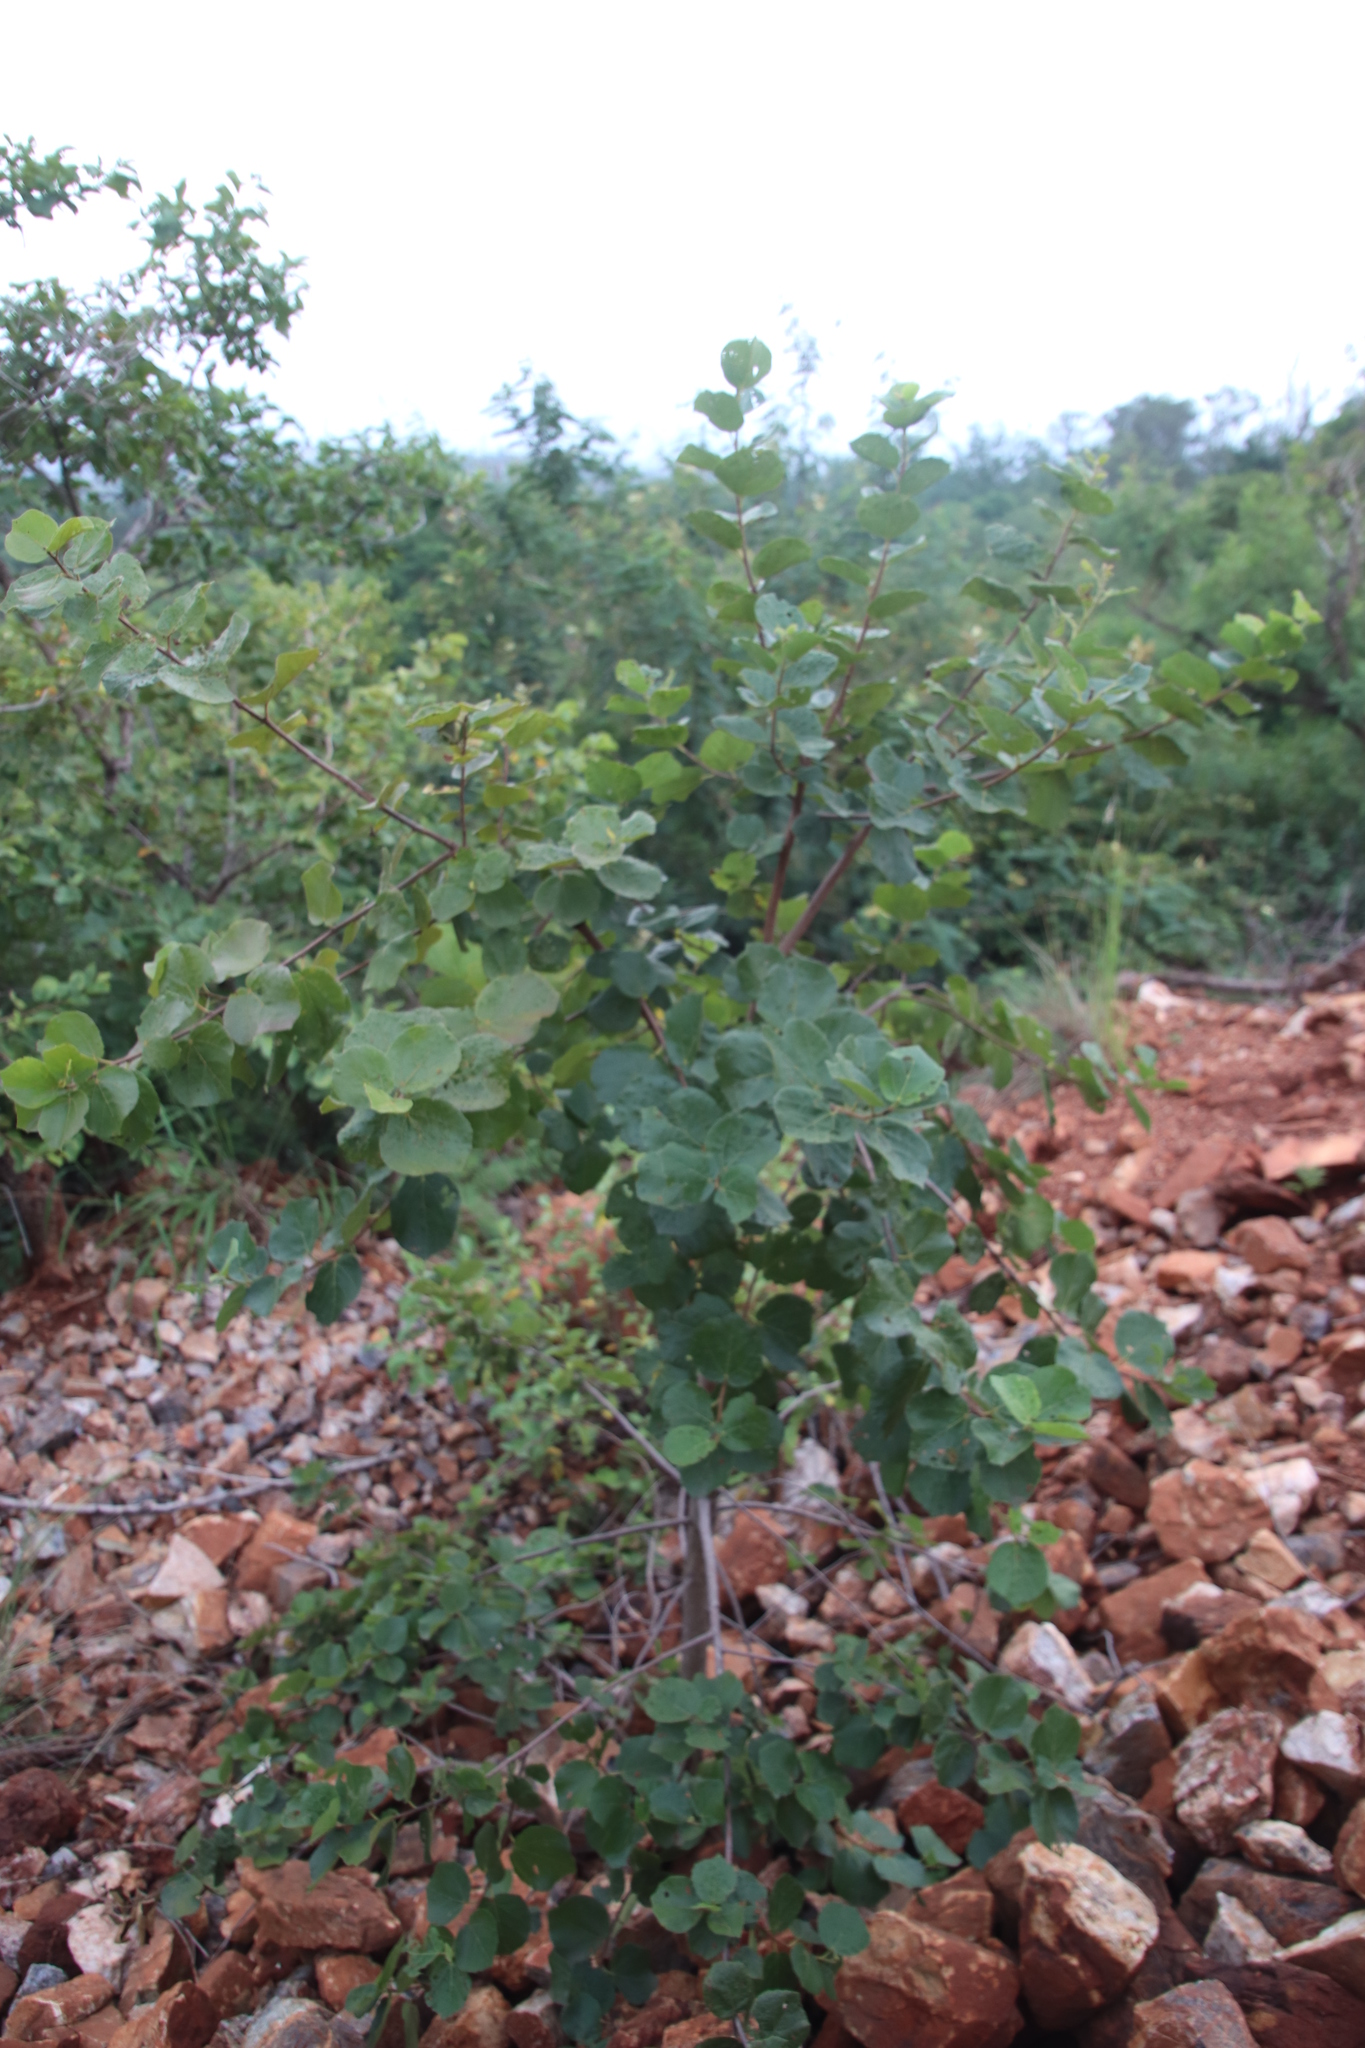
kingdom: Plantae
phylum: Tracheophyta
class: Magnoliopsida
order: Malvales
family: Malvaceae
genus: Dombeya
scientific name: Dombeya rotundifolia
